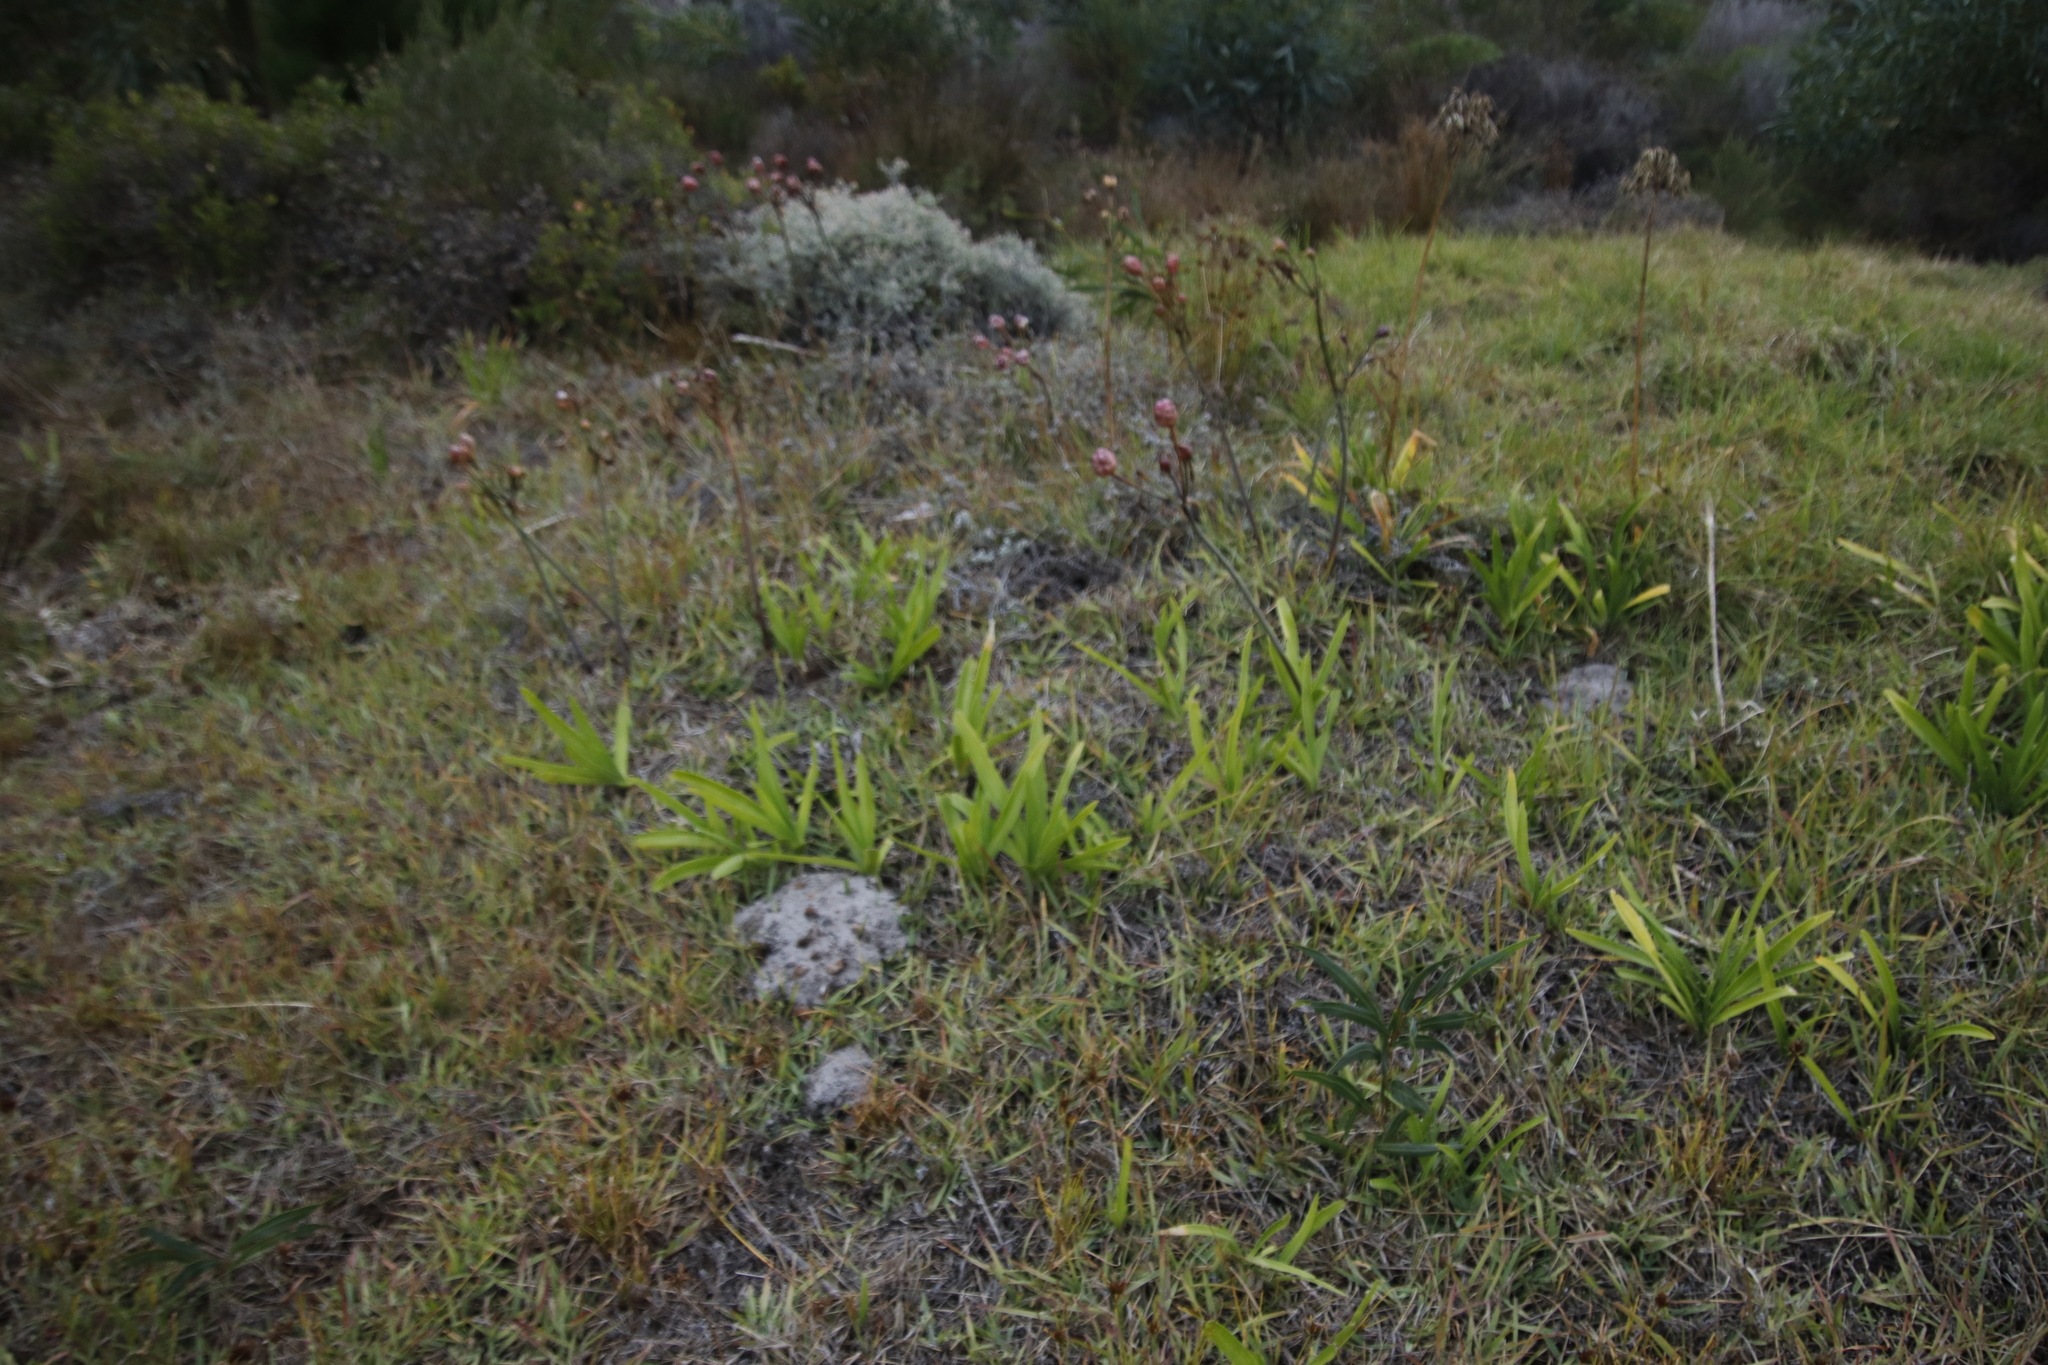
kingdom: Plantae
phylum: Tracheophyta
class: Liliopsida
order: Asparagales
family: Amaryllidaceae
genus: Amaryllis
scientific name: Amaryllis belladonna
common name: Jersey lily
